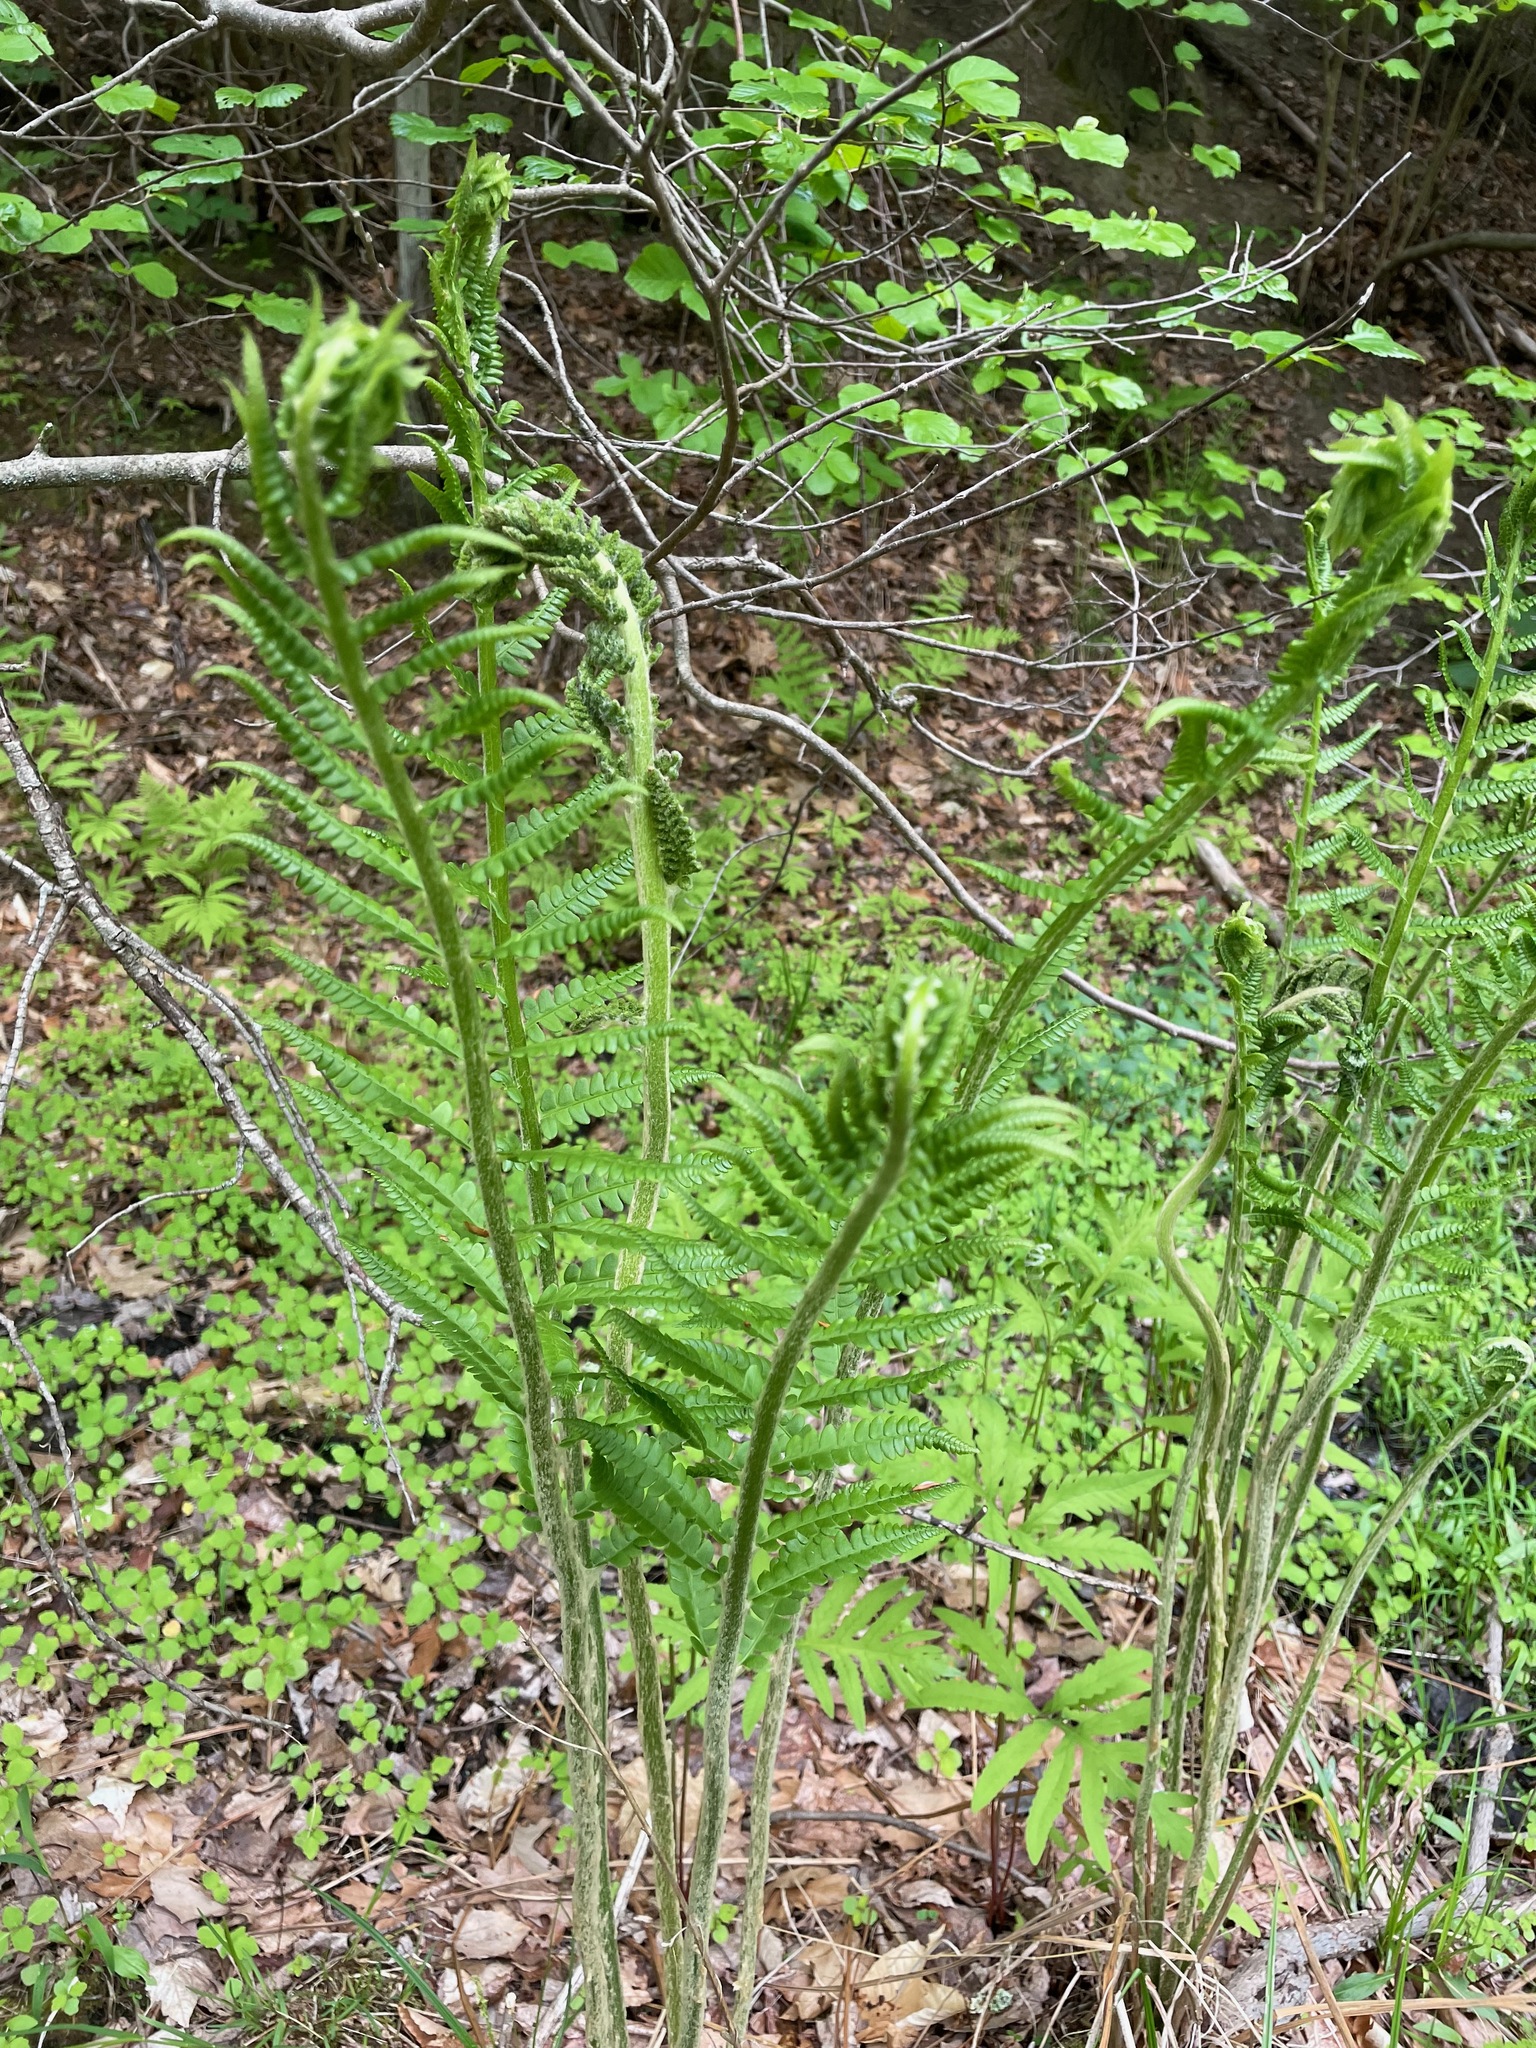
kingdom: Plantae
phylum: Tracheophyta
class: Polypodiopsida
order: Osmundales
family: Osmundaceae
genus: Osmundastrum
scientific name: Osmundastrum cinnamomeum
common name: Cinnamon fern
